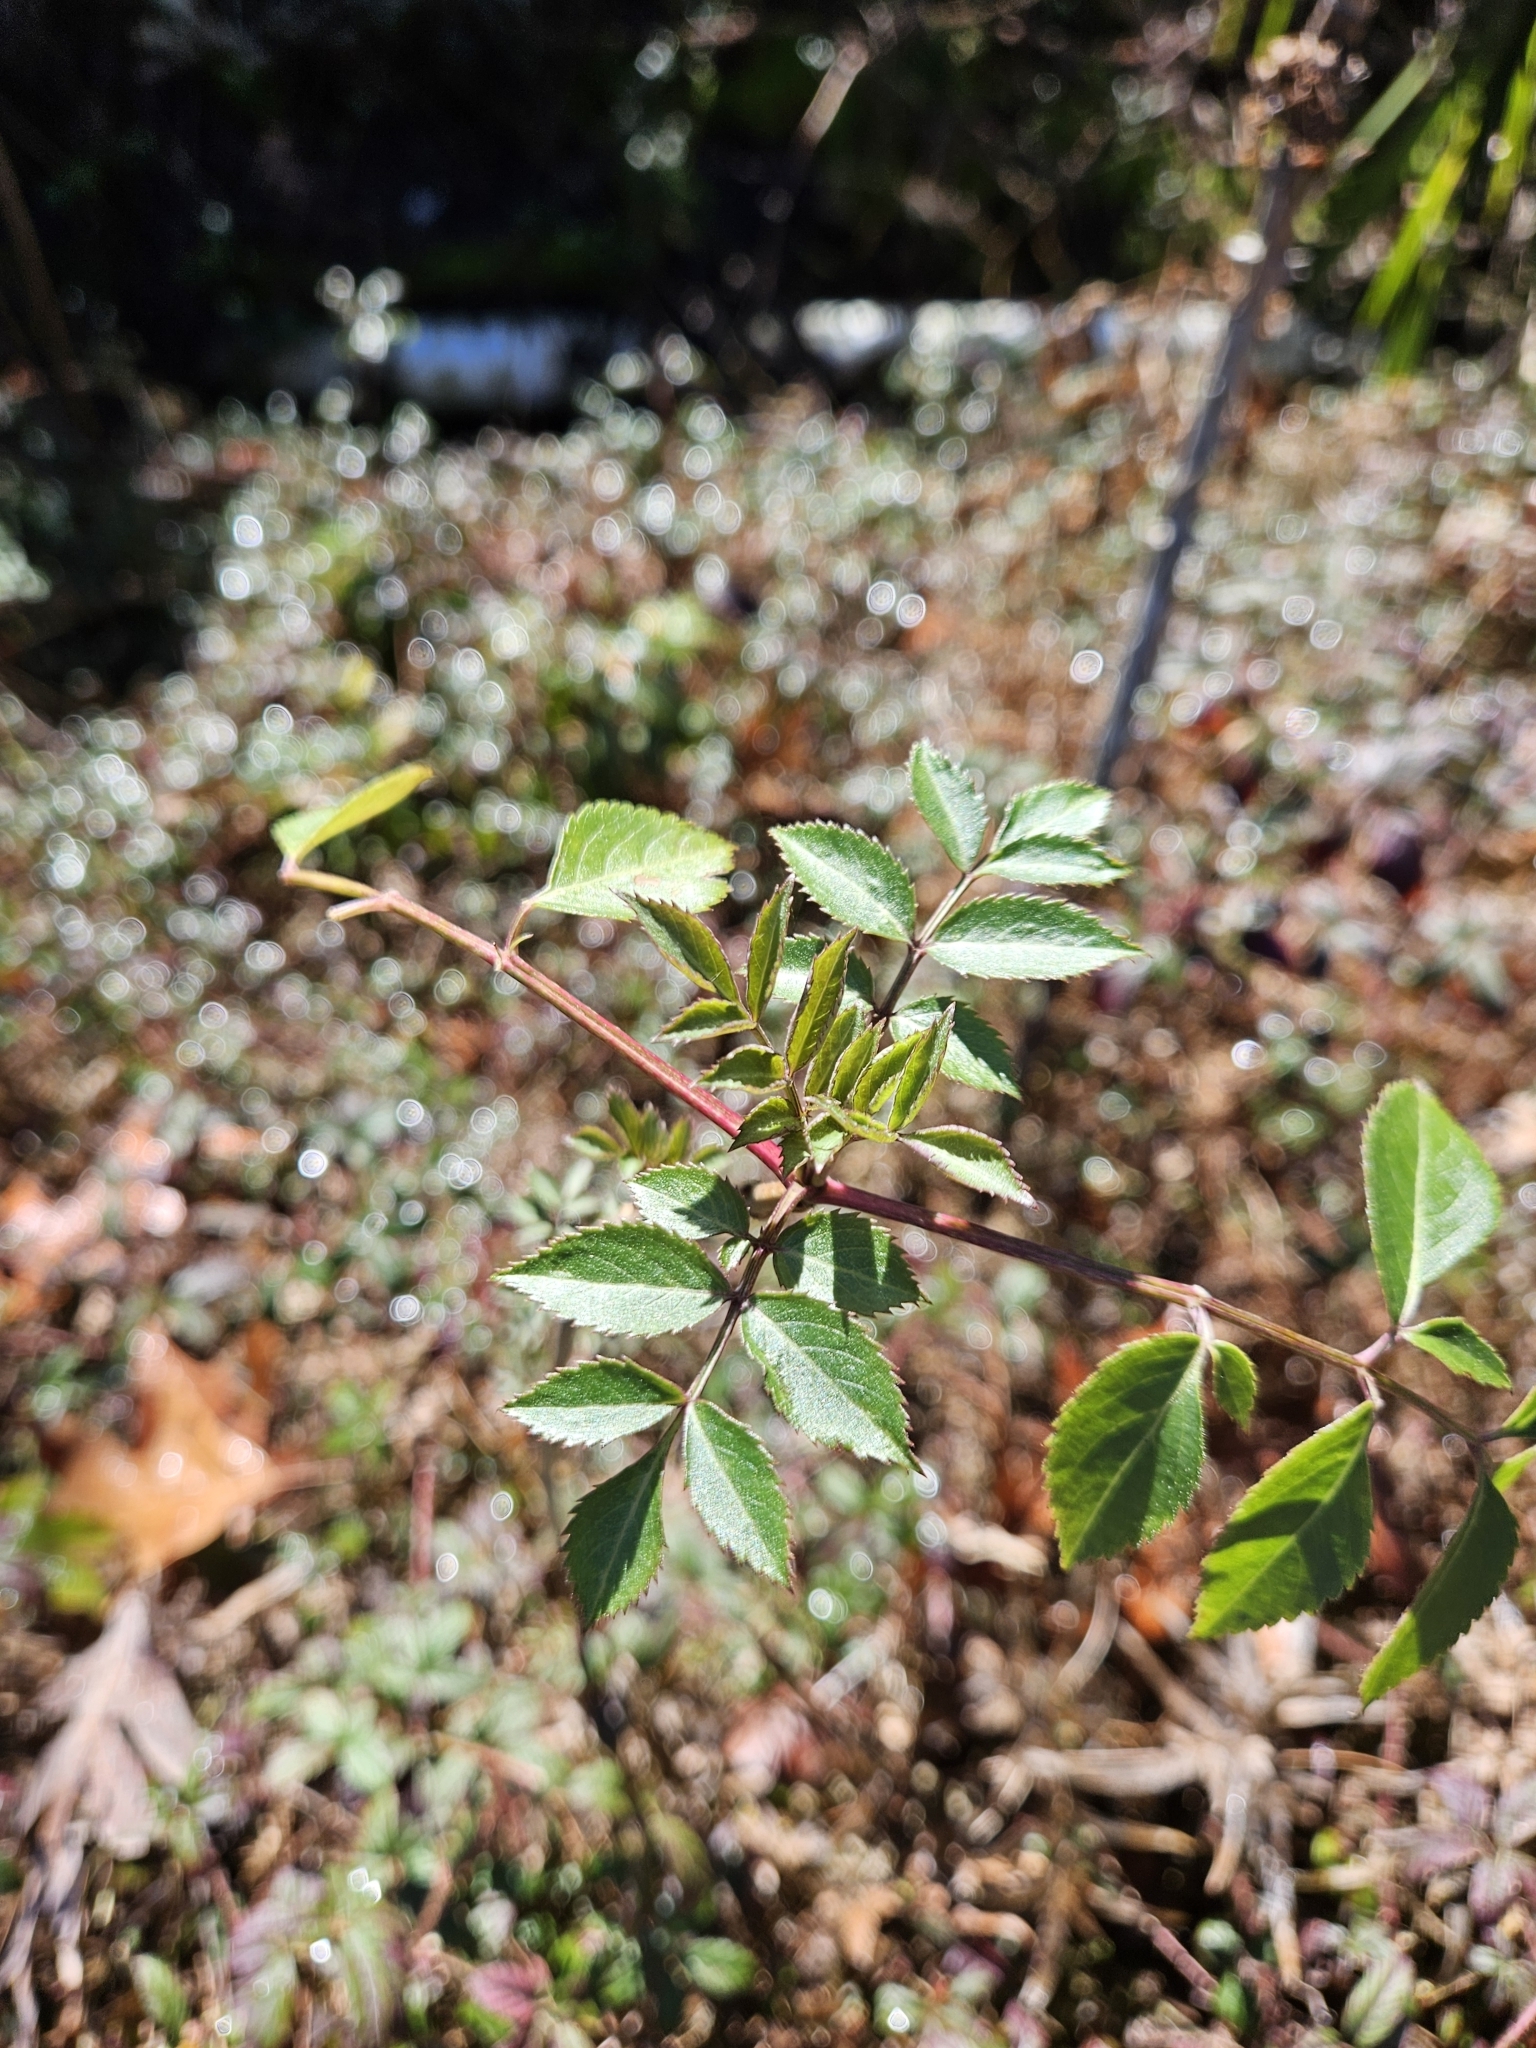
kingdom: Plantae
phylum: Tracheophyta
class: Magnoliopsida
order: Dipsacales
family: Viburnaceae
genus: Sambucus
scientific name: Sambucus canadensis
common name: American elder
